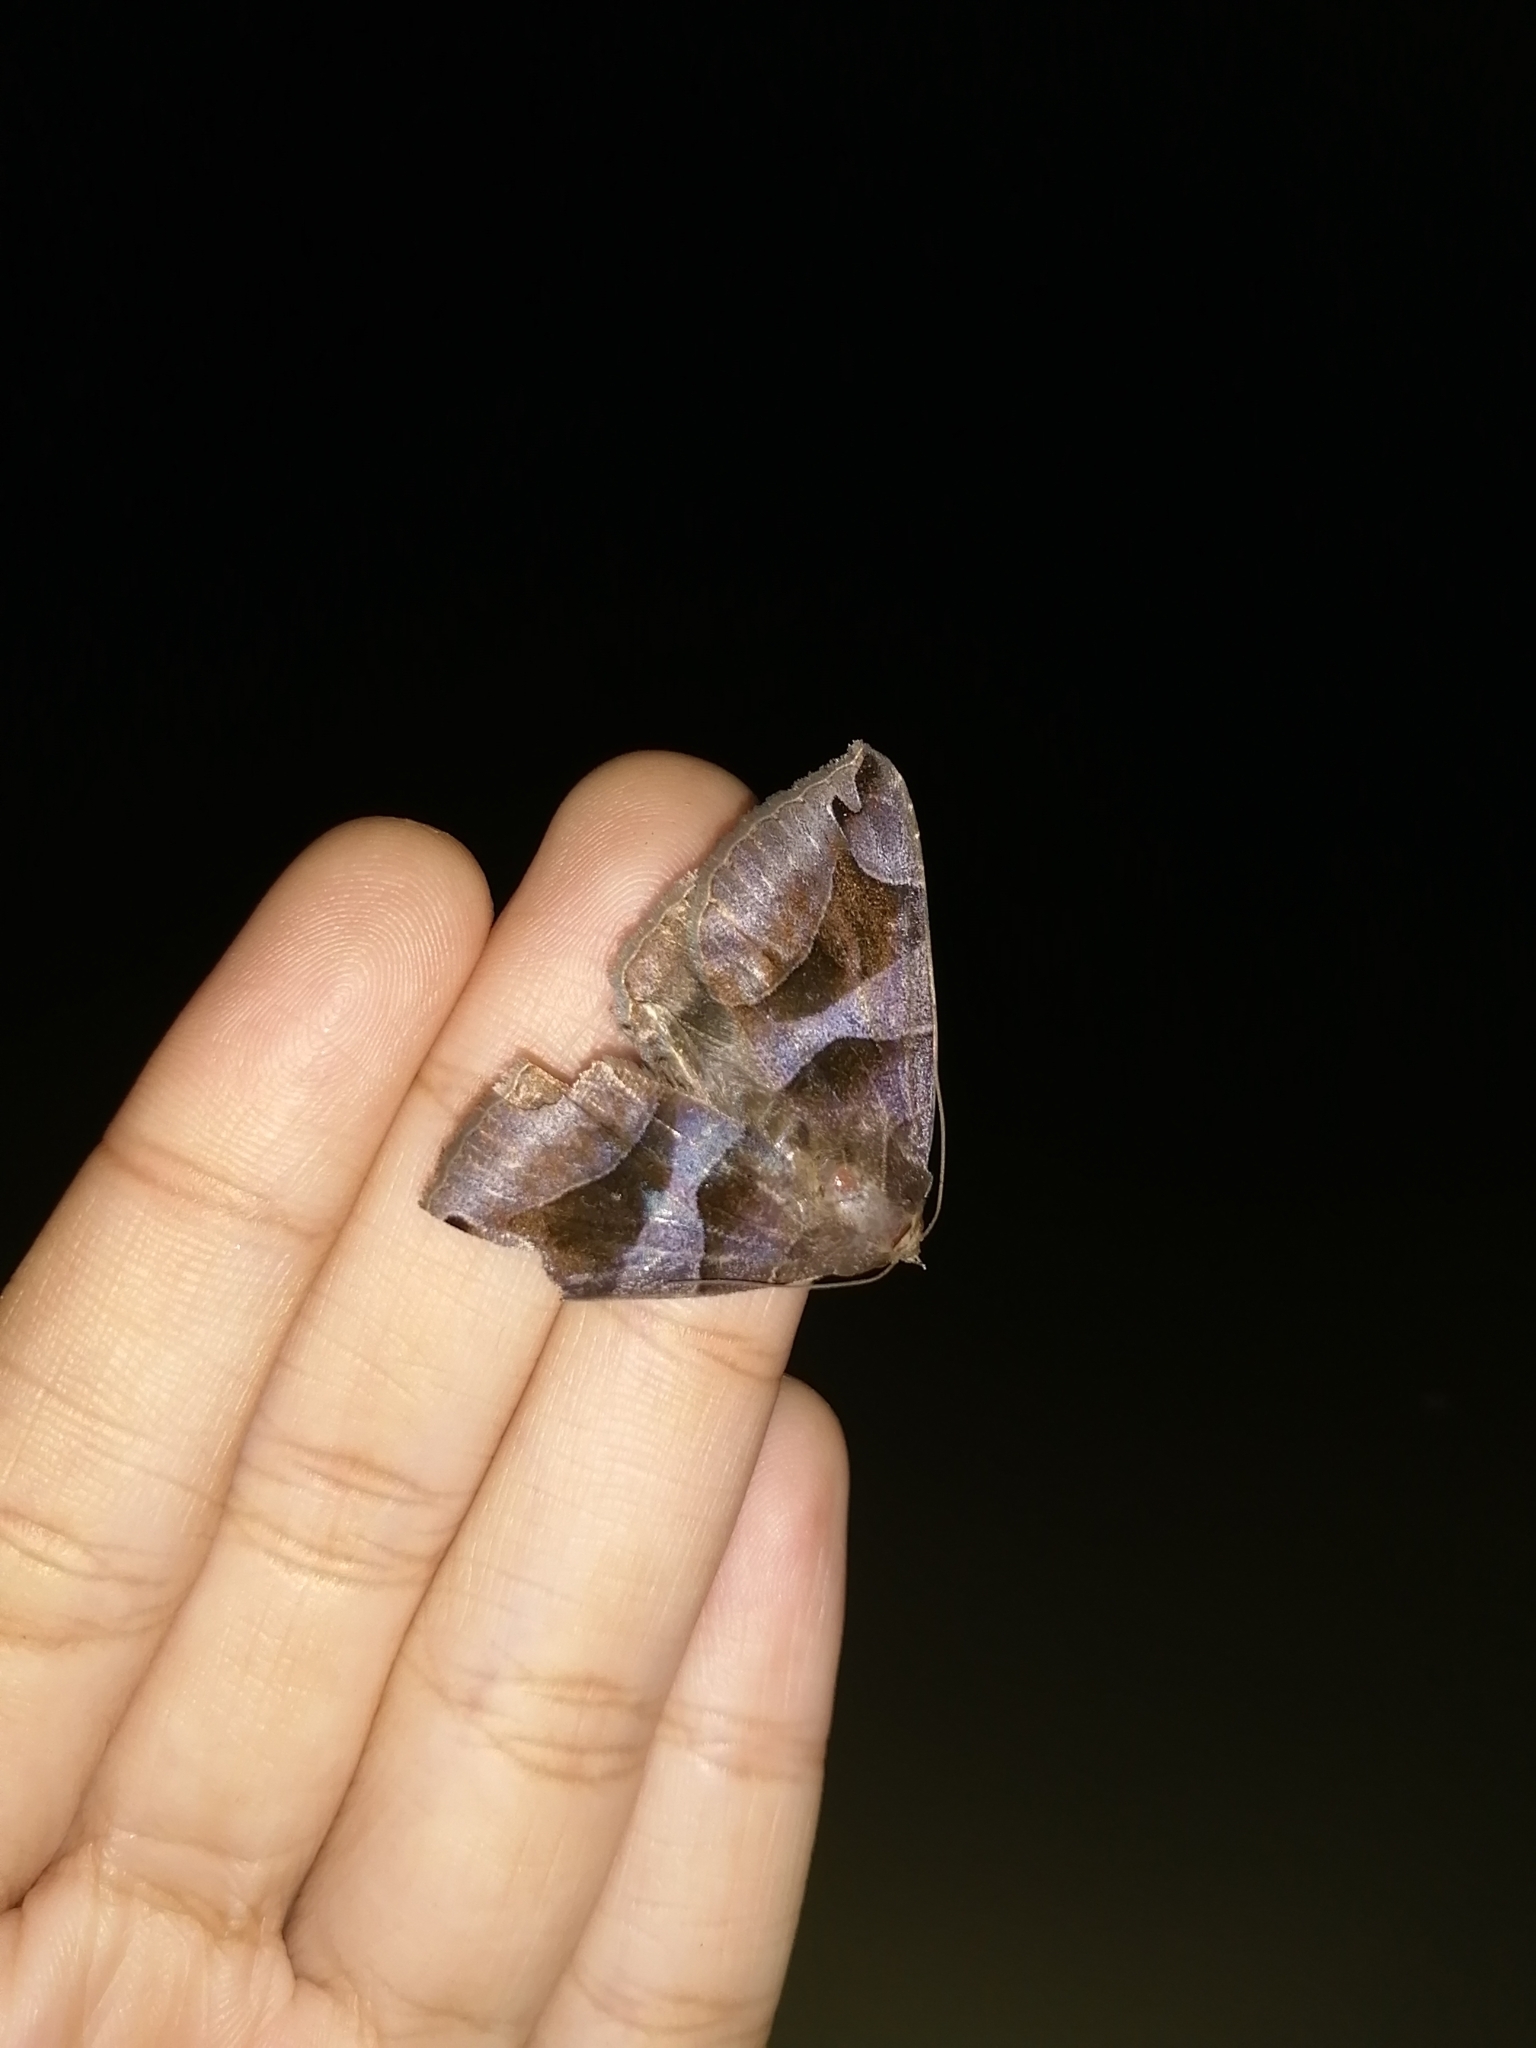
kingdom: Animalia
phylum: Arthropoda
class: Insecta
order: Lepidoptera
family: Erebidae
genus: Bastilla
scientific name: Bastilla arcuata
